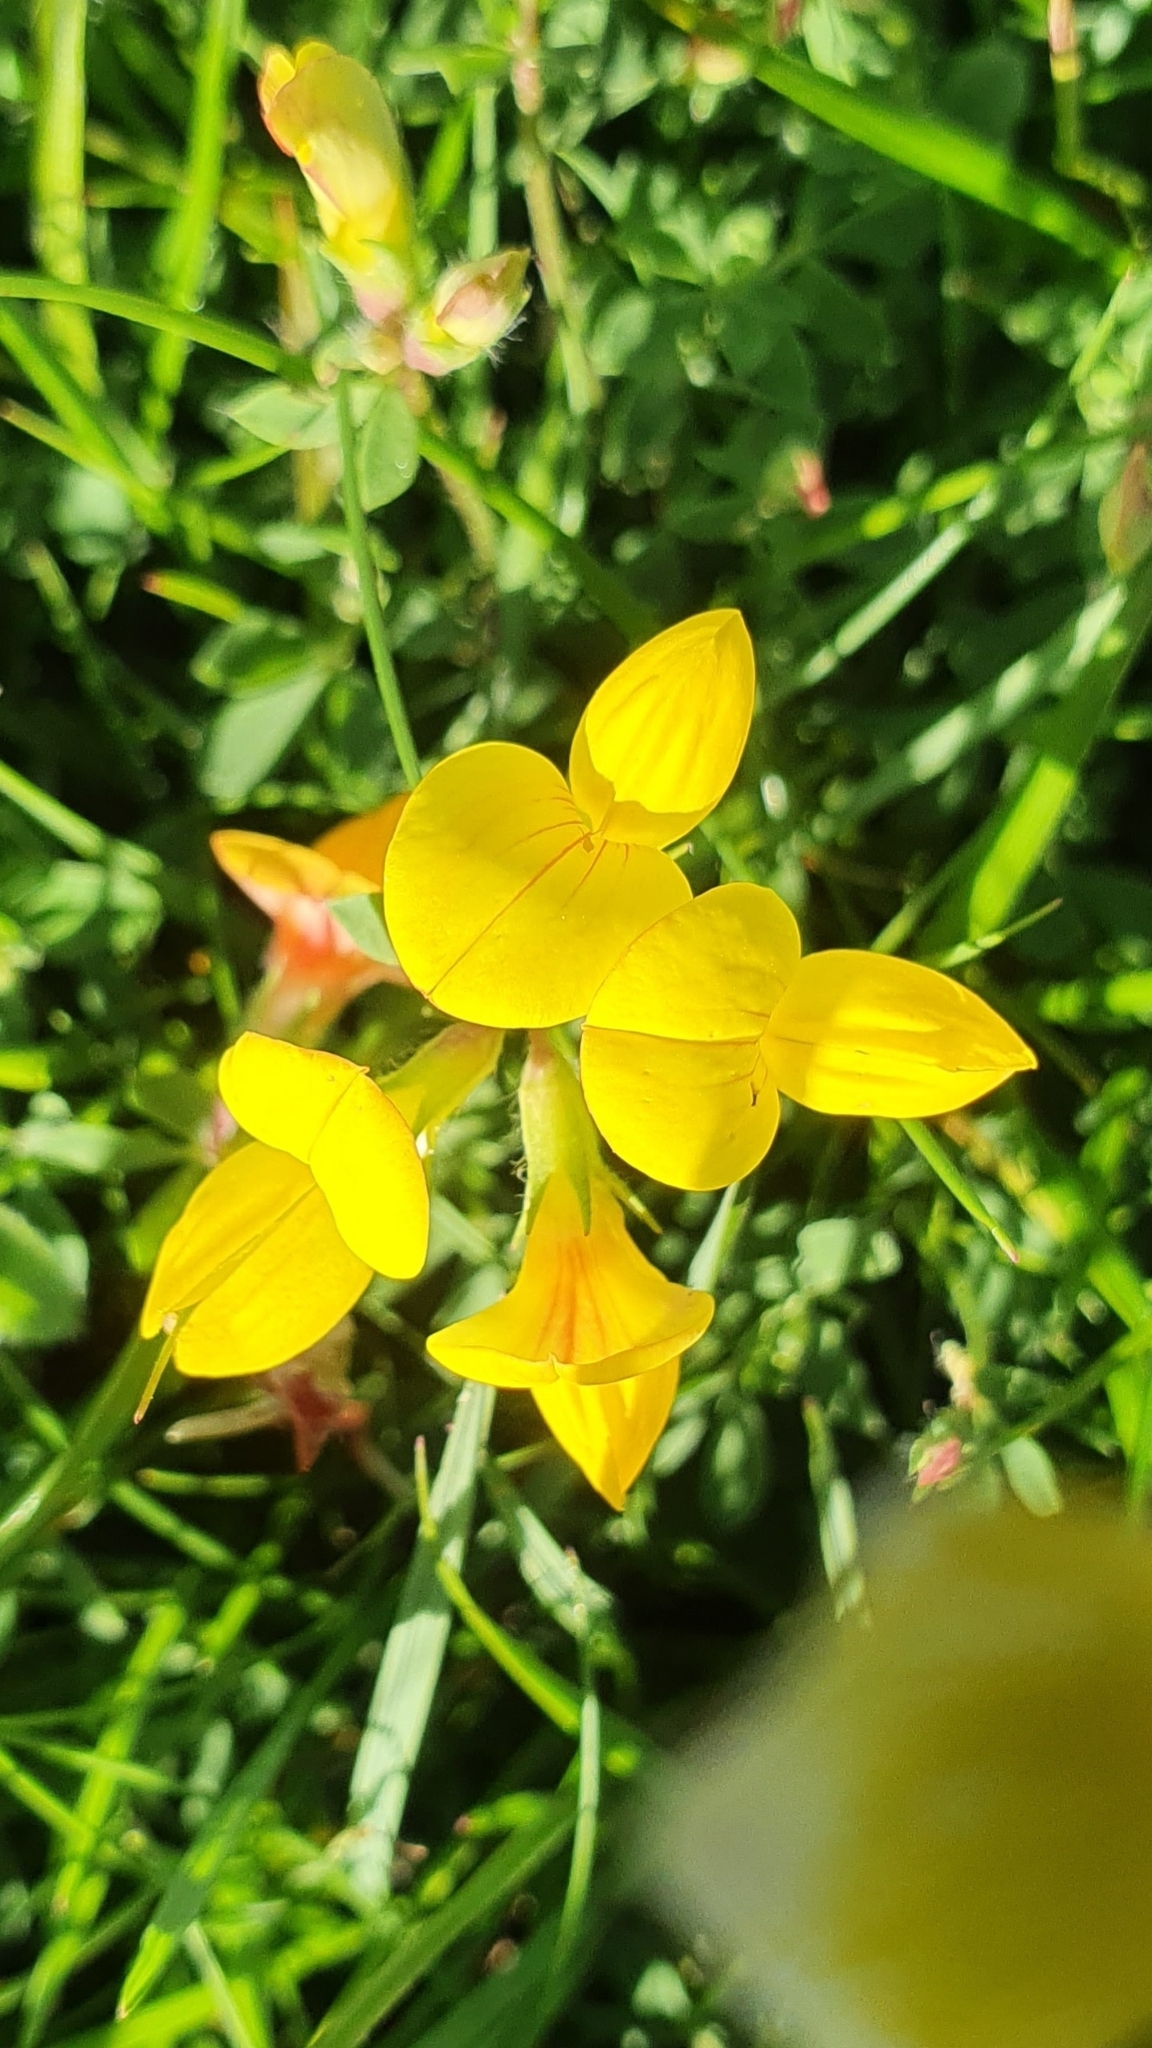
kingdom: Plantae
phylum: Tracheophyta
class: Magnoliopsida
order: Fabales
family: Fabaceae
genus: Lotus
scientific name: Lotus corniculatus
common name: Common bird's-foot-trefoil
